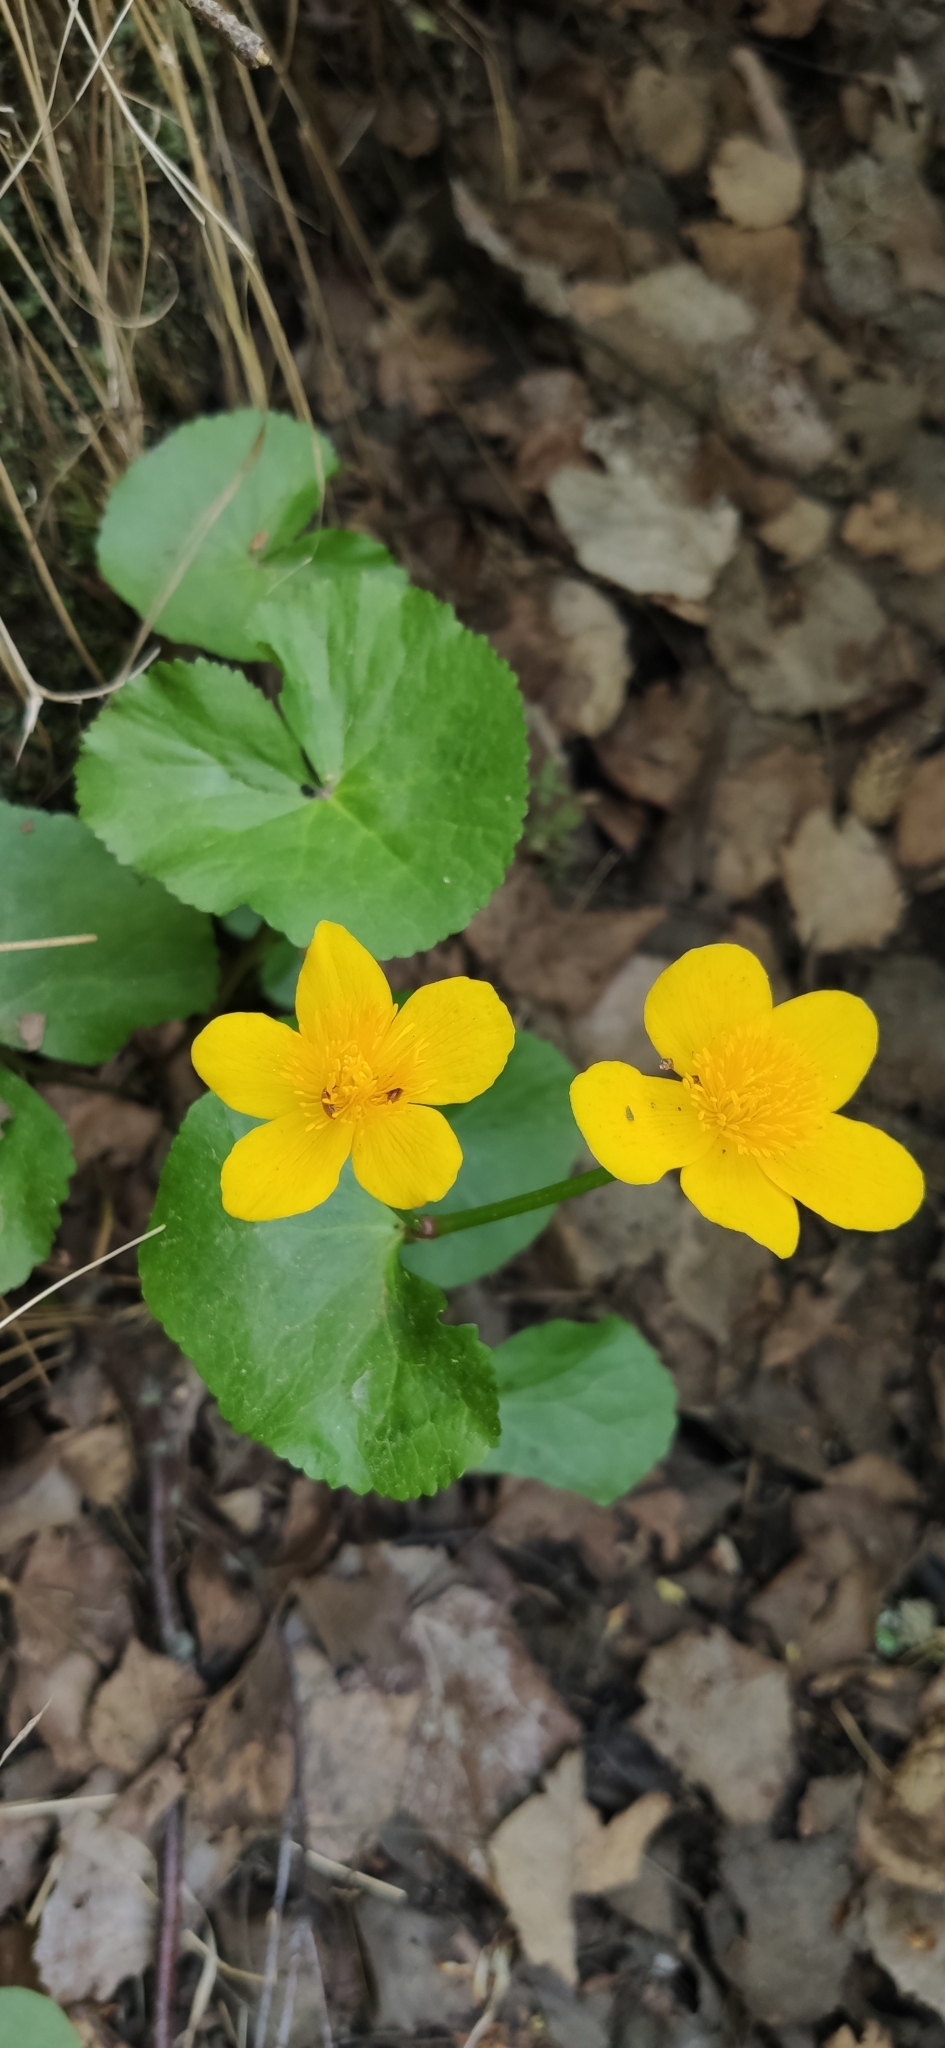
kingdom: Plantae
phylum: Tracheophyta
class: Magnoliopsida
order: Ranunculales
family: Ranunculaceae
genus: Caltha
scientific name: Caltha palustris
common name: Marsh marigold
